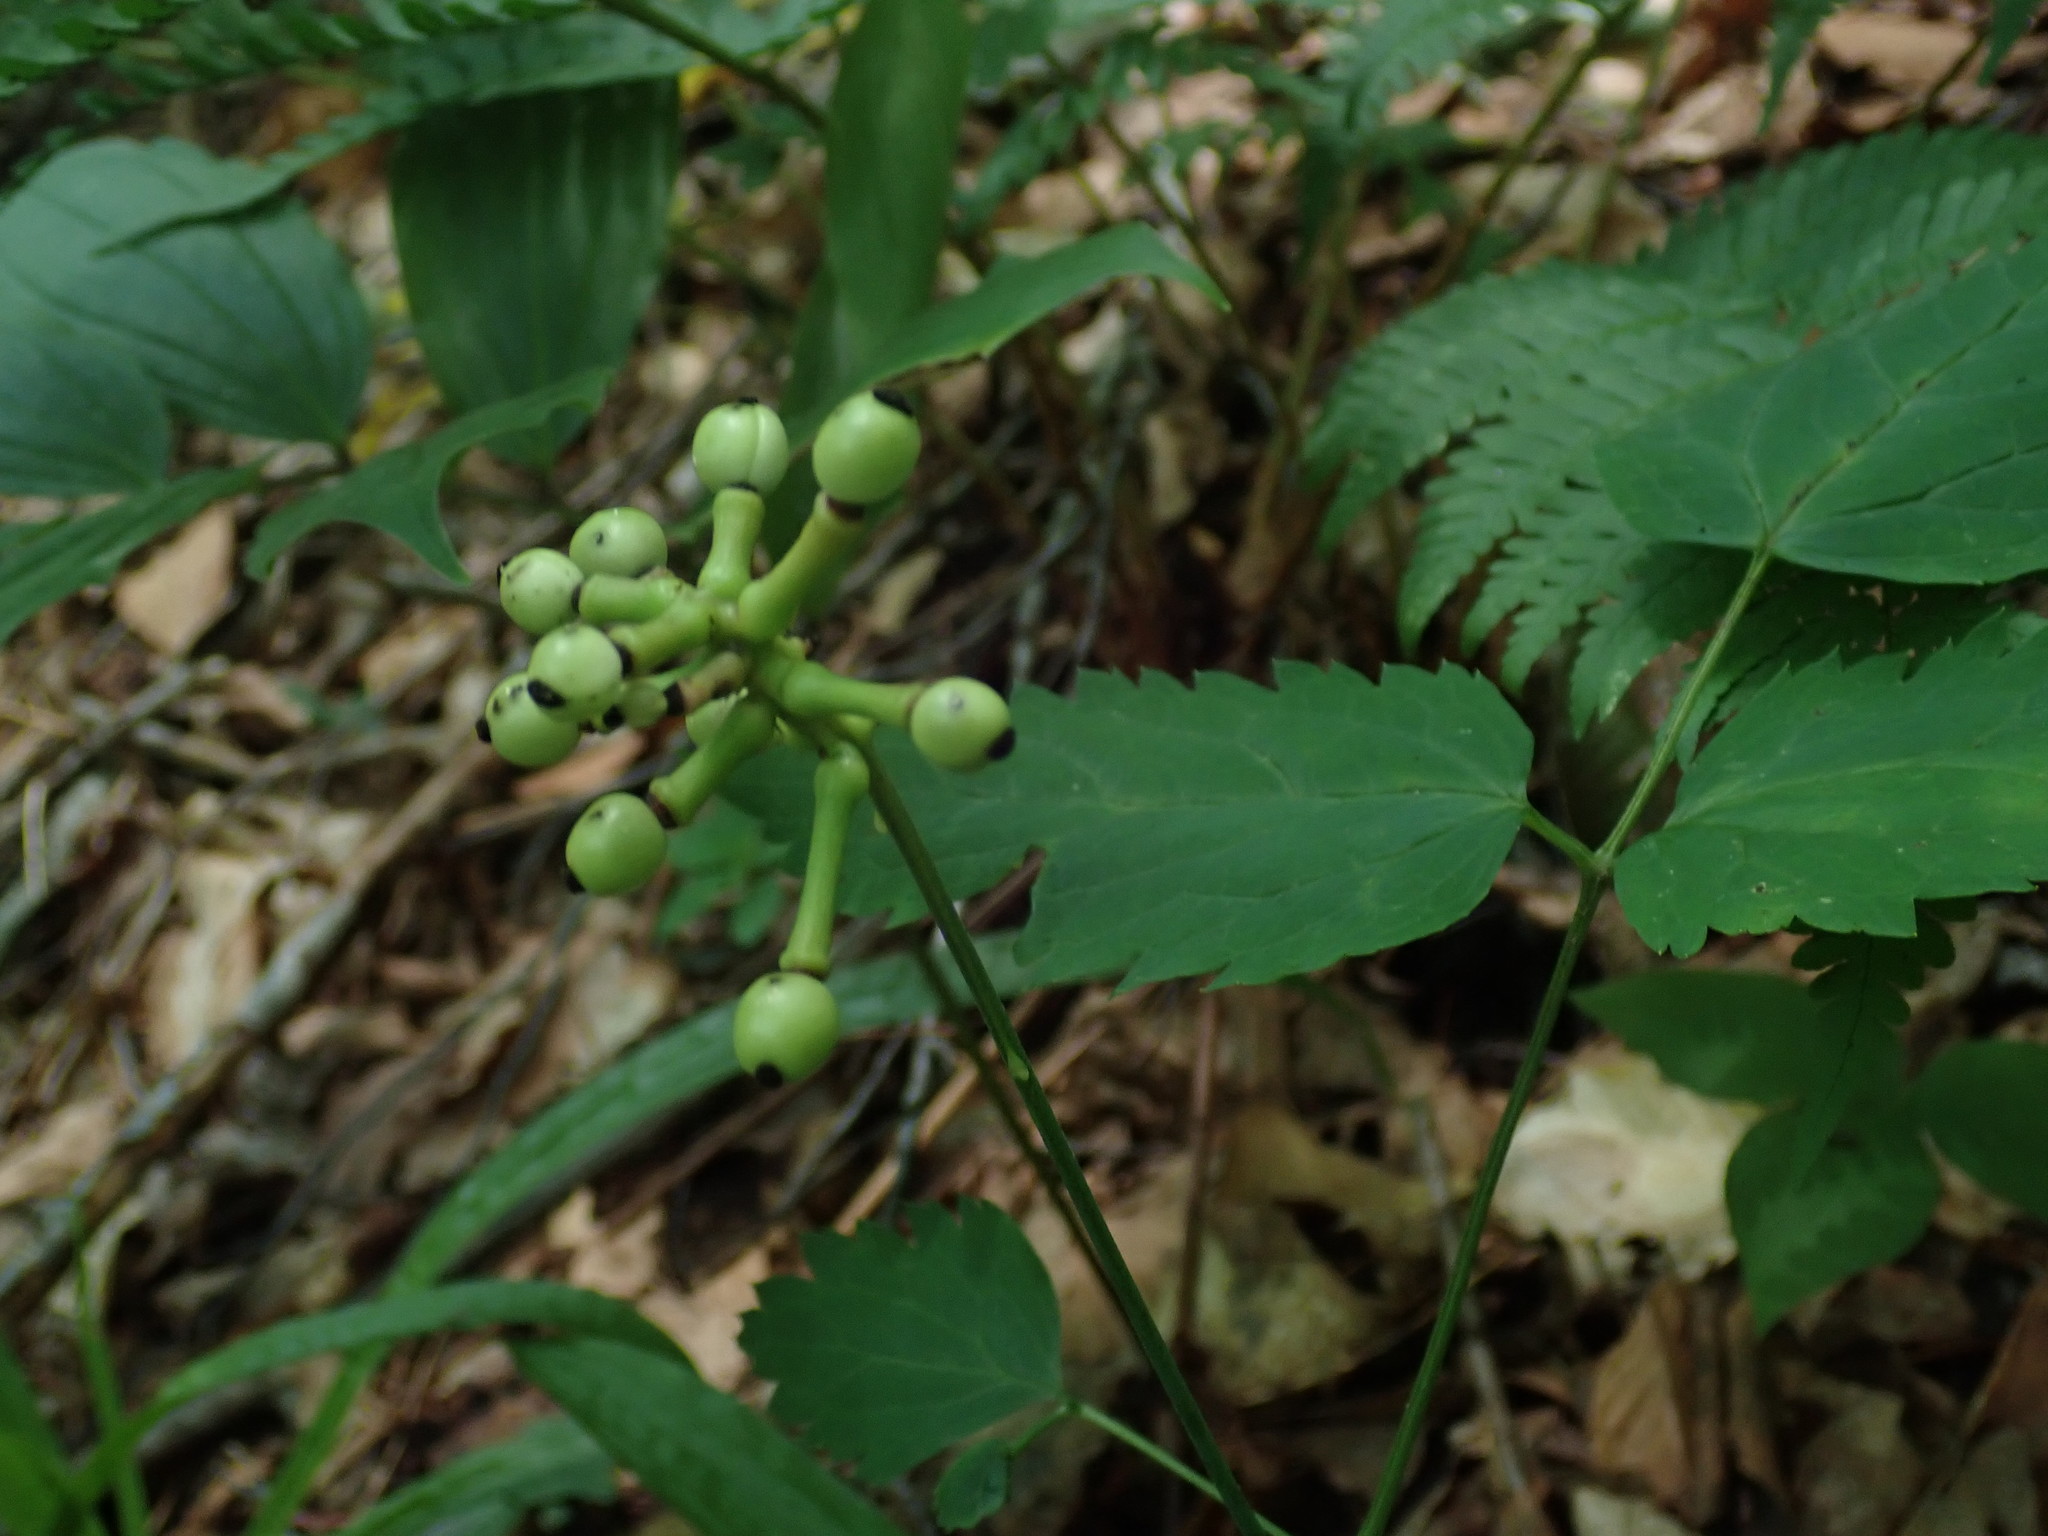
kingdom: Plantae
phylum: Tracheophyta
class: Magnoliopsida
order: Ranunculales
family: Ranunculaceae
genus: Actaea
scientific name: Actaea pachypoda
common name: Doll's-eyes
